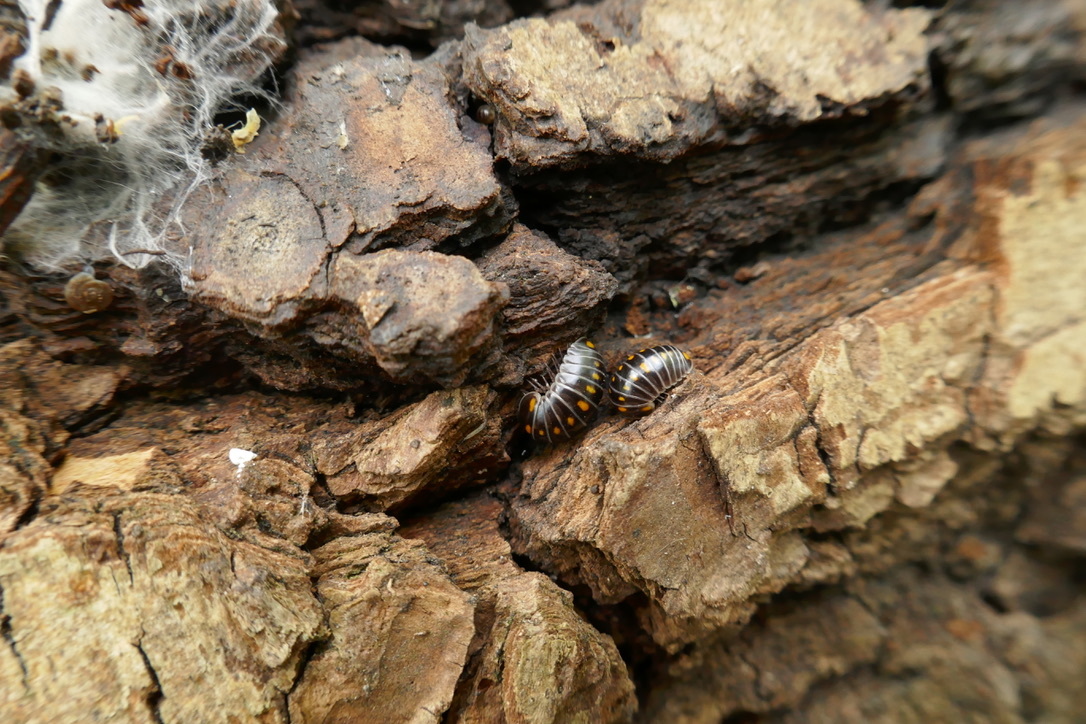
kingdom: Animalia
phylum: Arthropoda
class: Diplopoda
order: Glomerida
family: Glomeridae
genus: Glomeris
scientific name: Glomeris pustulata
